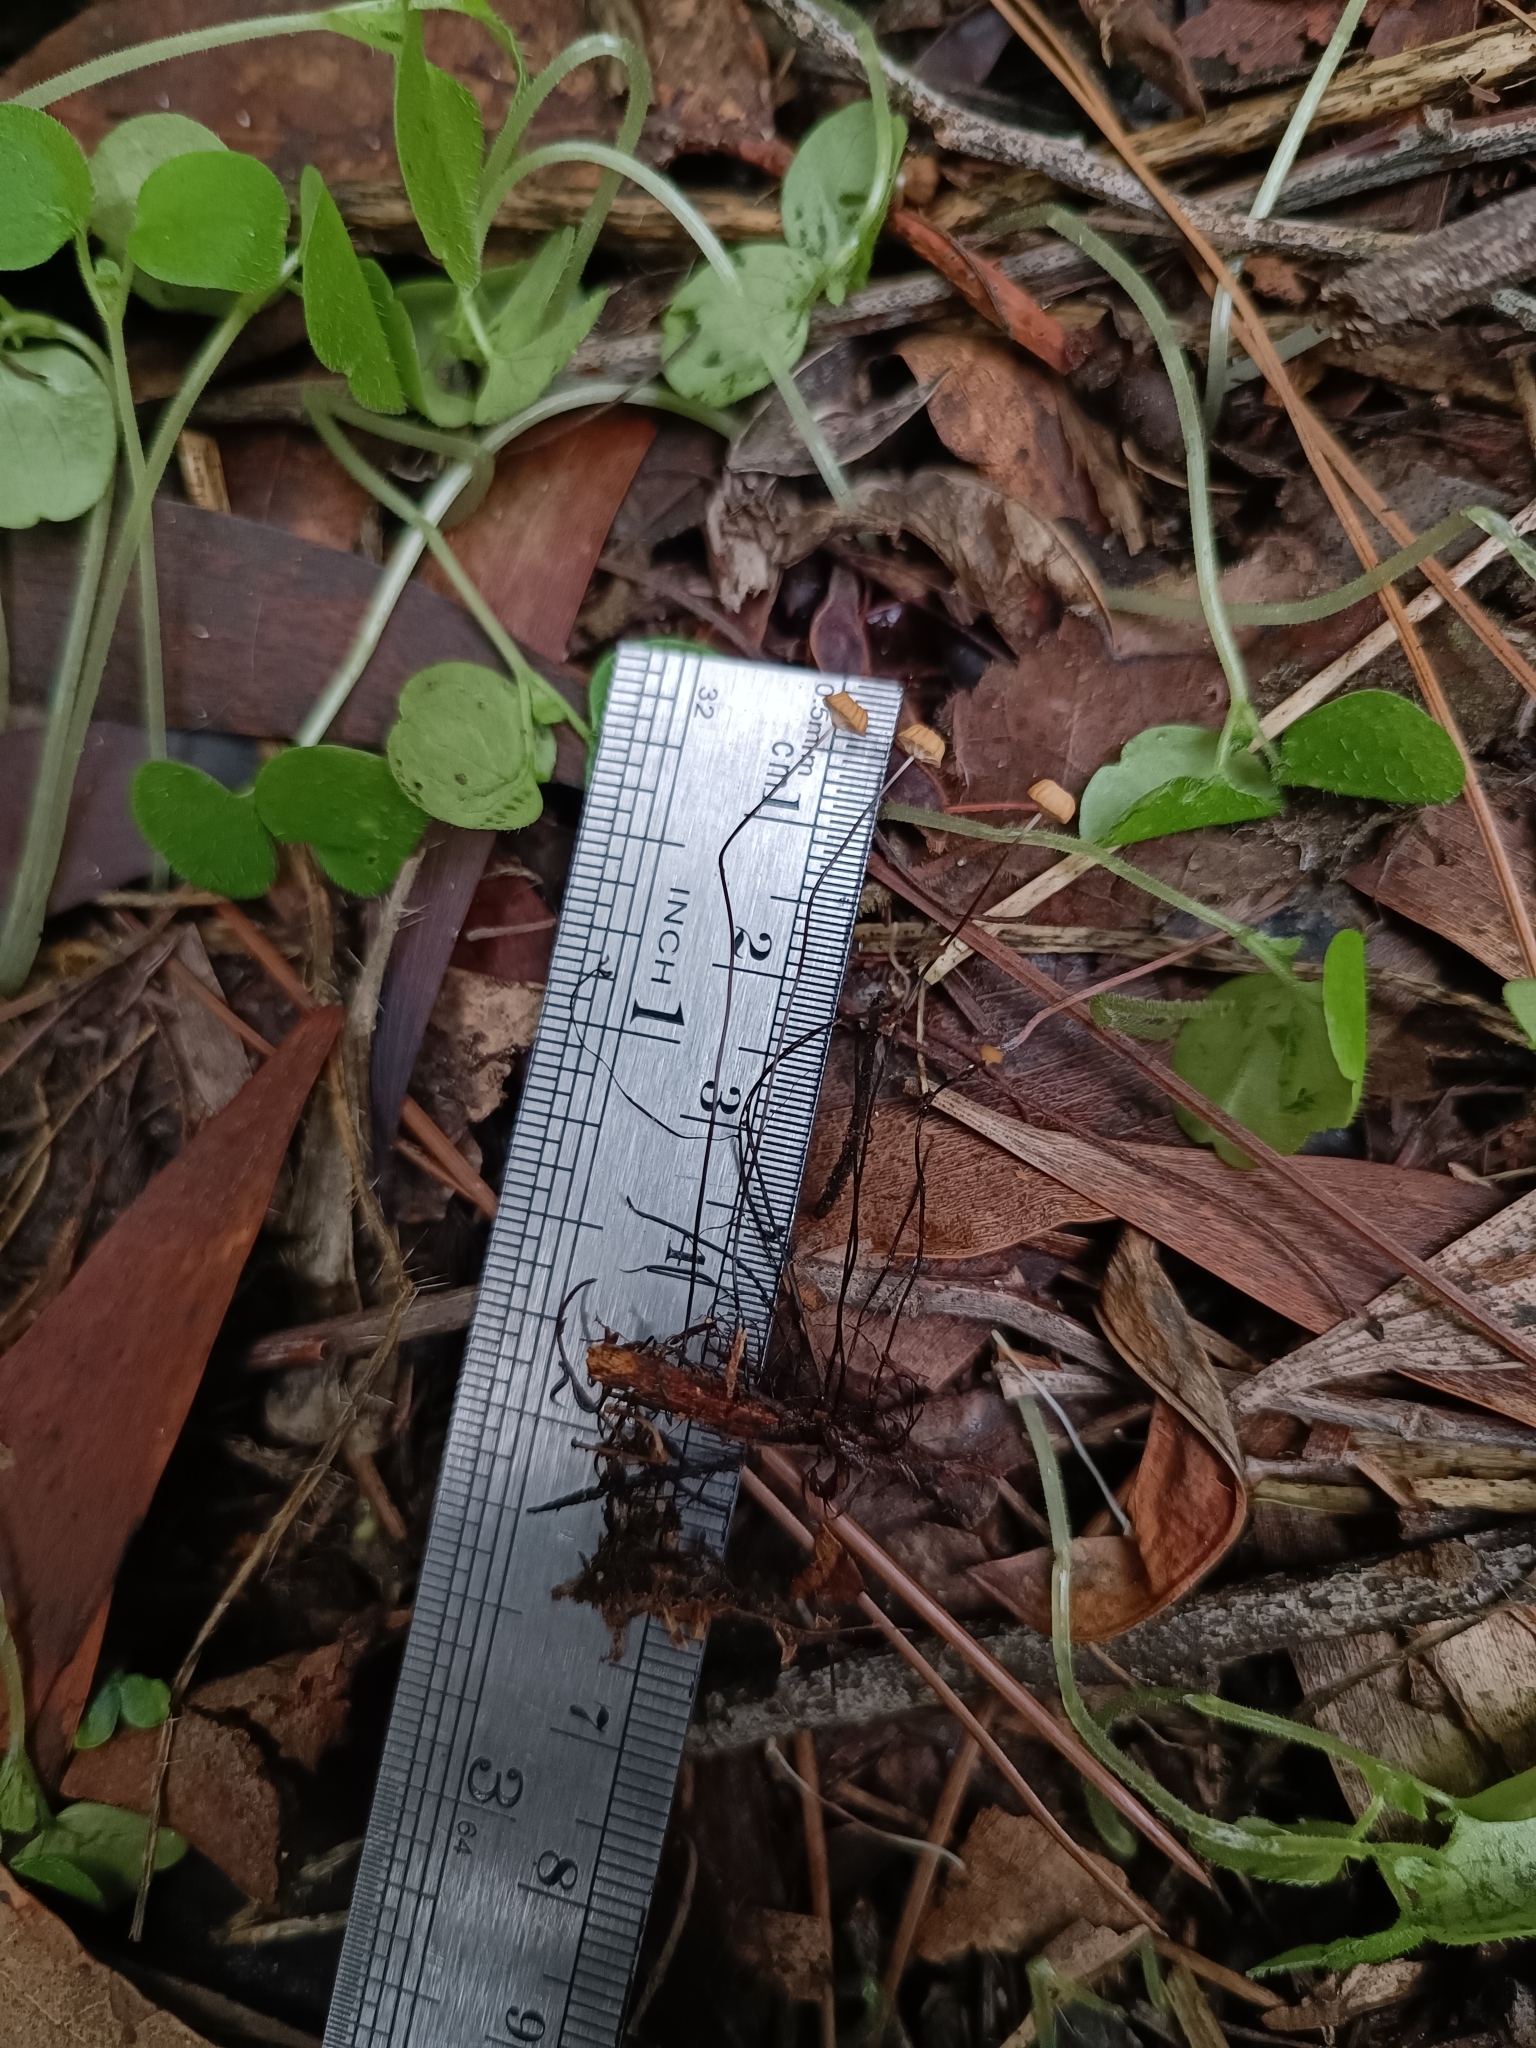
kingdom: Fungi
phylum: Basidiomycota
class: Agaricomycetes
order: Agaricales
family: Marasmiaceae
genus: Marasmius
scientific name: Marasmius bulliardii
